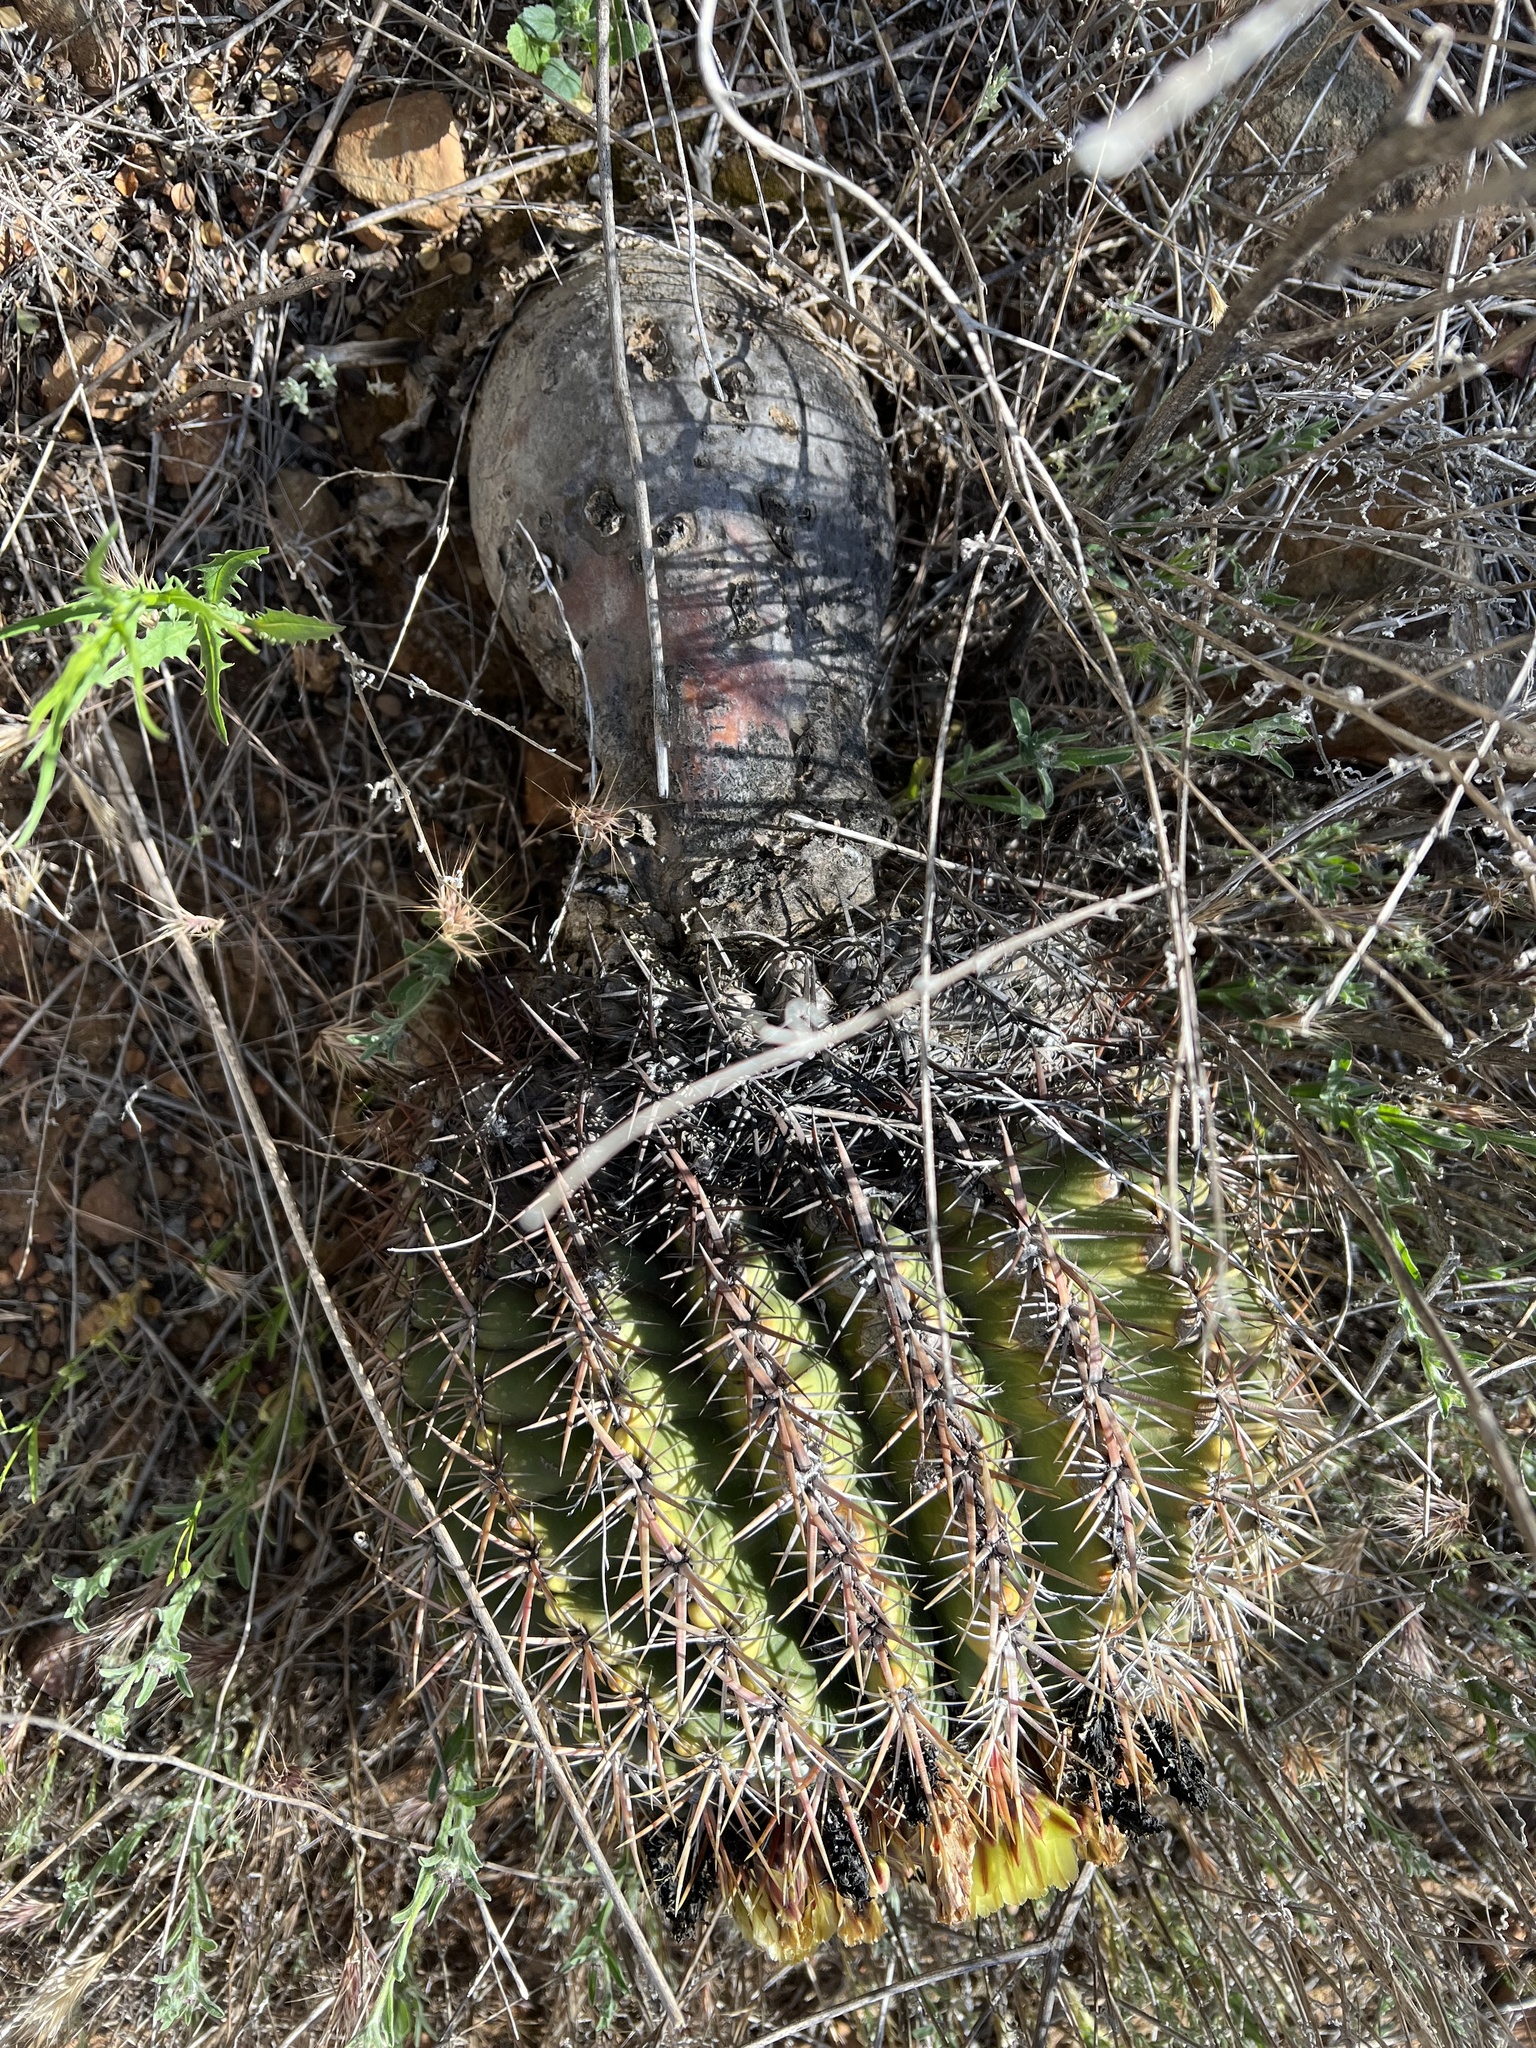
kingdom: Plantae
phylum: Tracheophyta
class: Magnoliopsida
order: Caryophyllales
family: Cactaceae
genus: Ferocactus
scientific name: Ferocactus viridescens
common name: San diego barrel cactus
